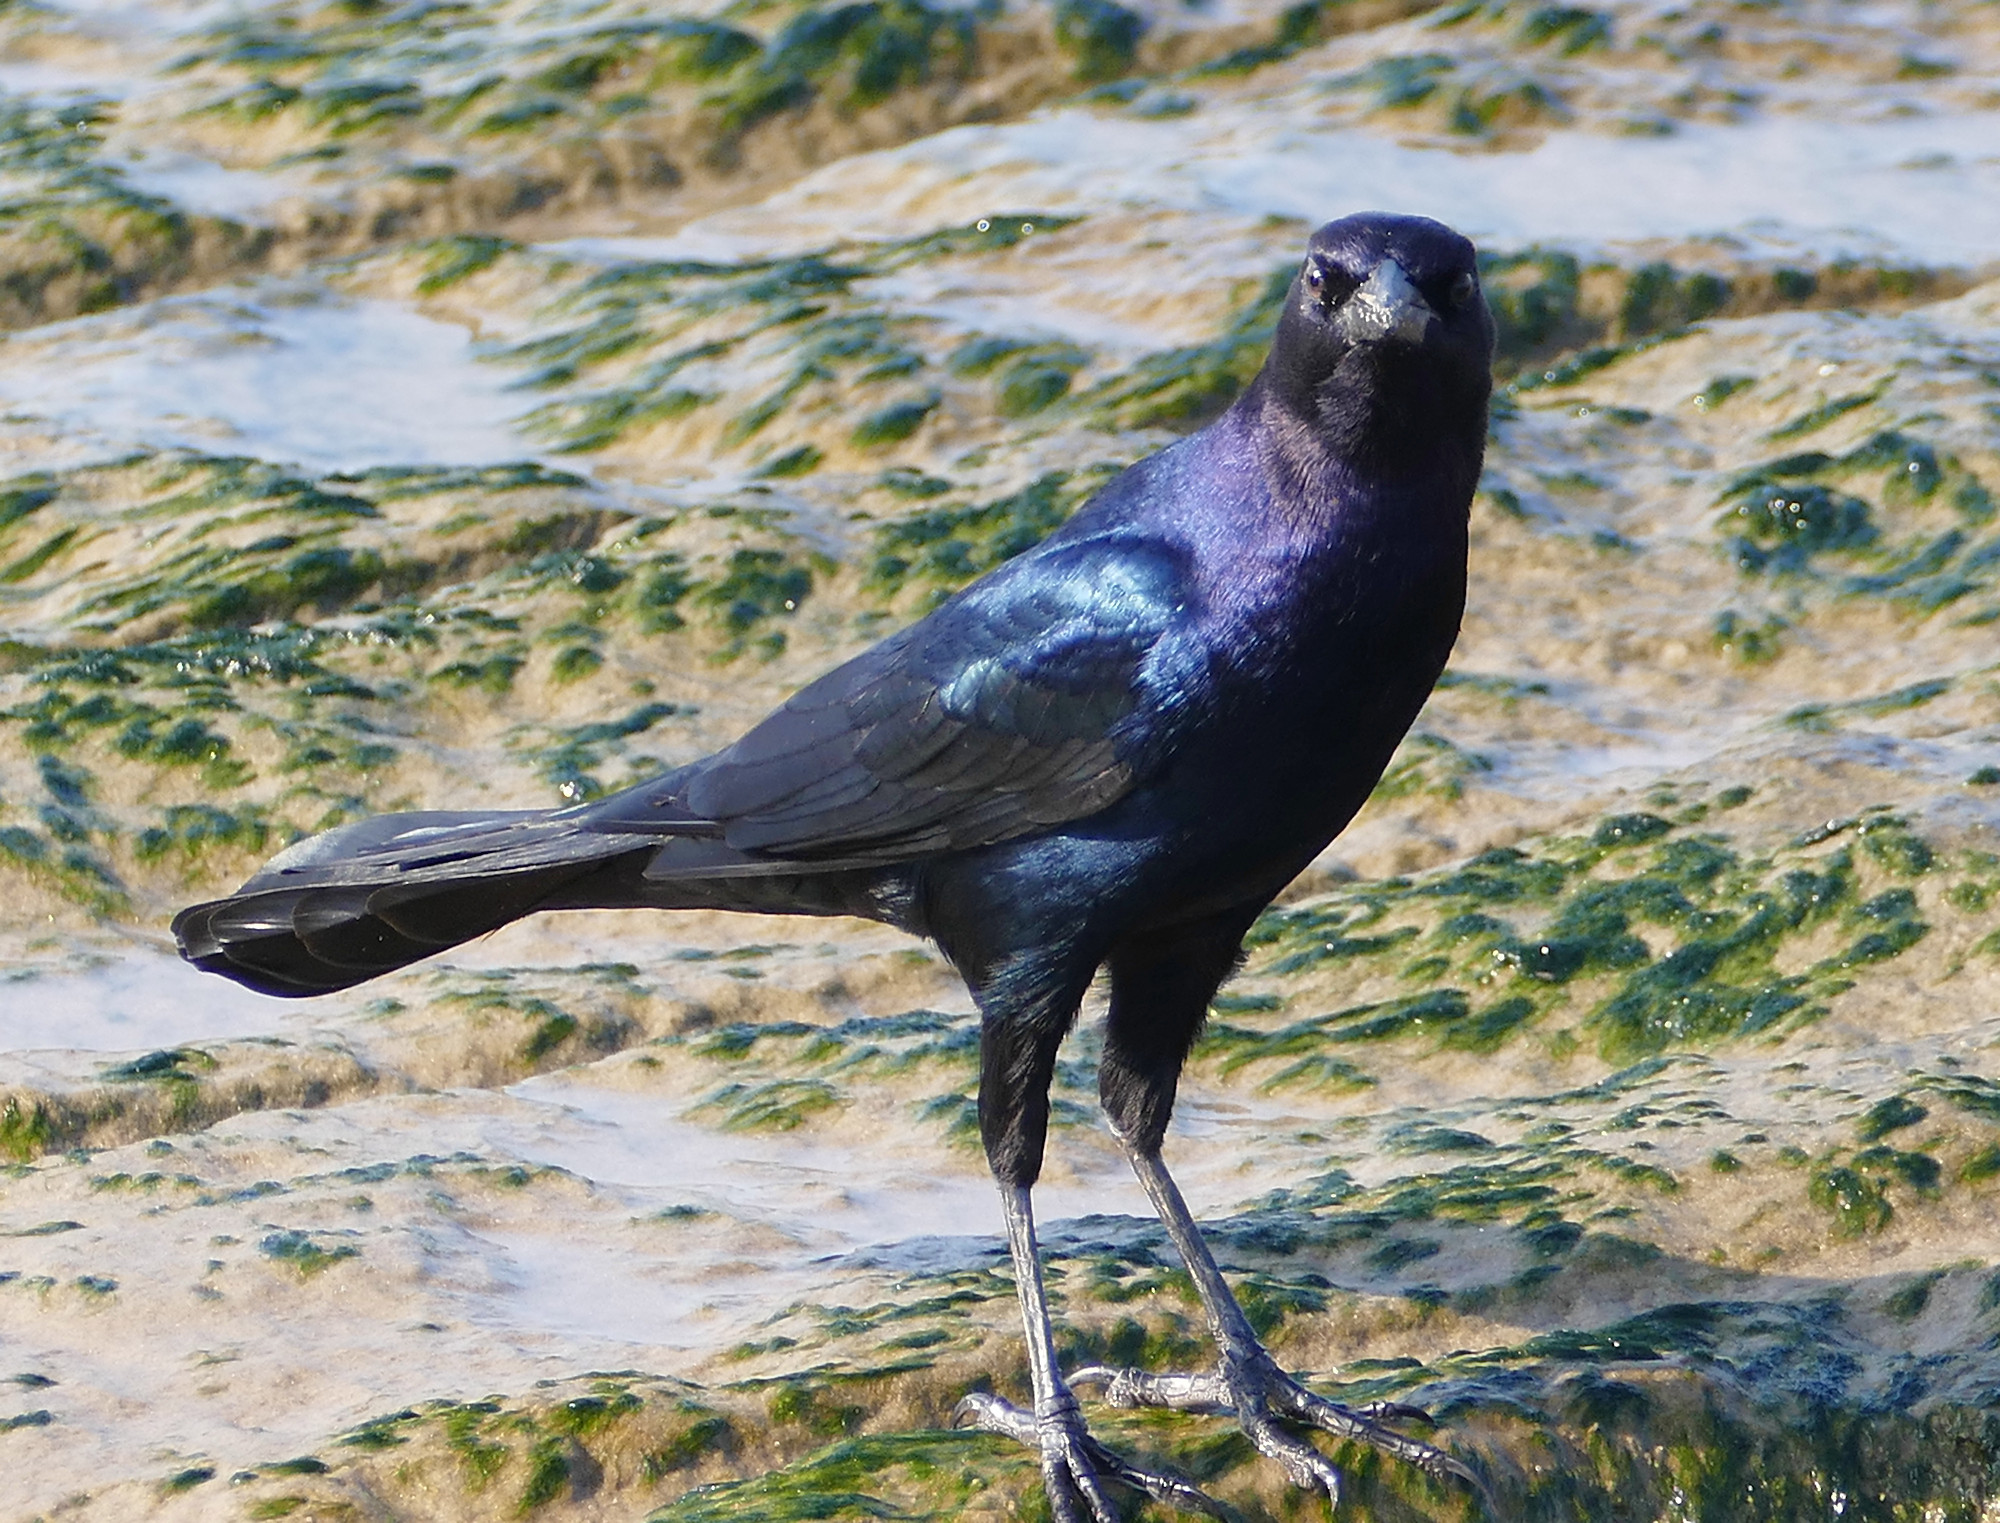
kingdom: Animalia
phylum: Chordata
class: Aves
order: Passeriformes
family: Icteridae
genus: Quiscalus
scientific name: Quiscalus major
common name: Boat-tailed grackle
